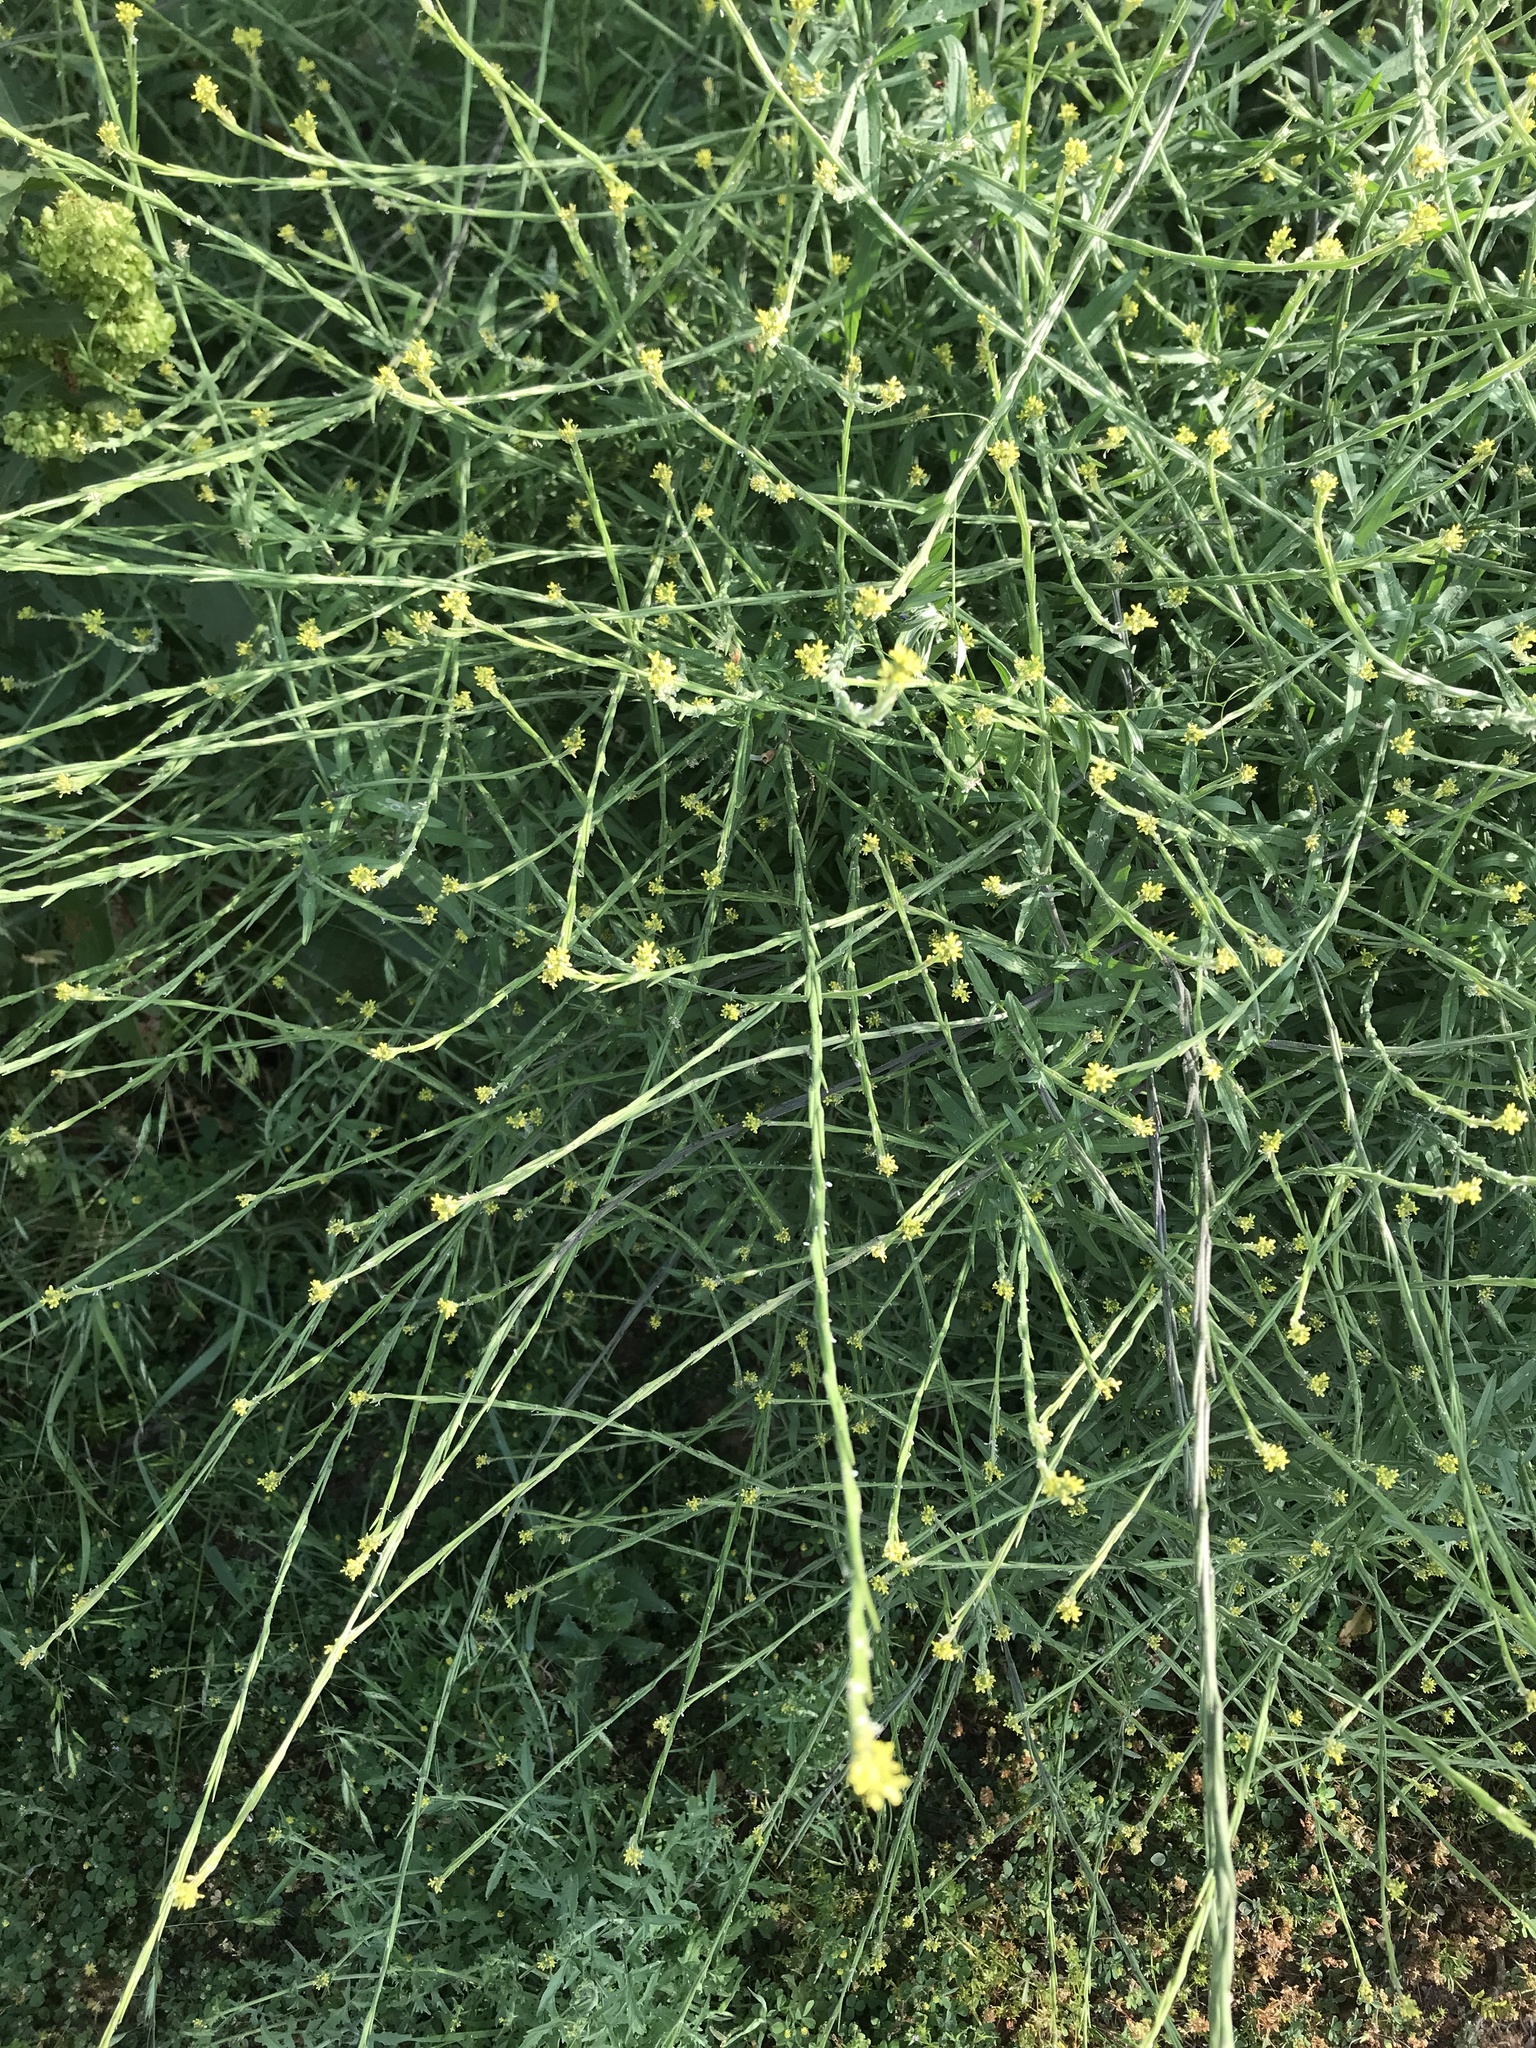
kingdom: Plantae
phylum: Tracheophyta
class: Magnoliopsida
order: Brassicales
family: Brassicaceae
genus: Sisymbrium
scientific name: Sisymbrium officinale
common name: Hedge mustard
